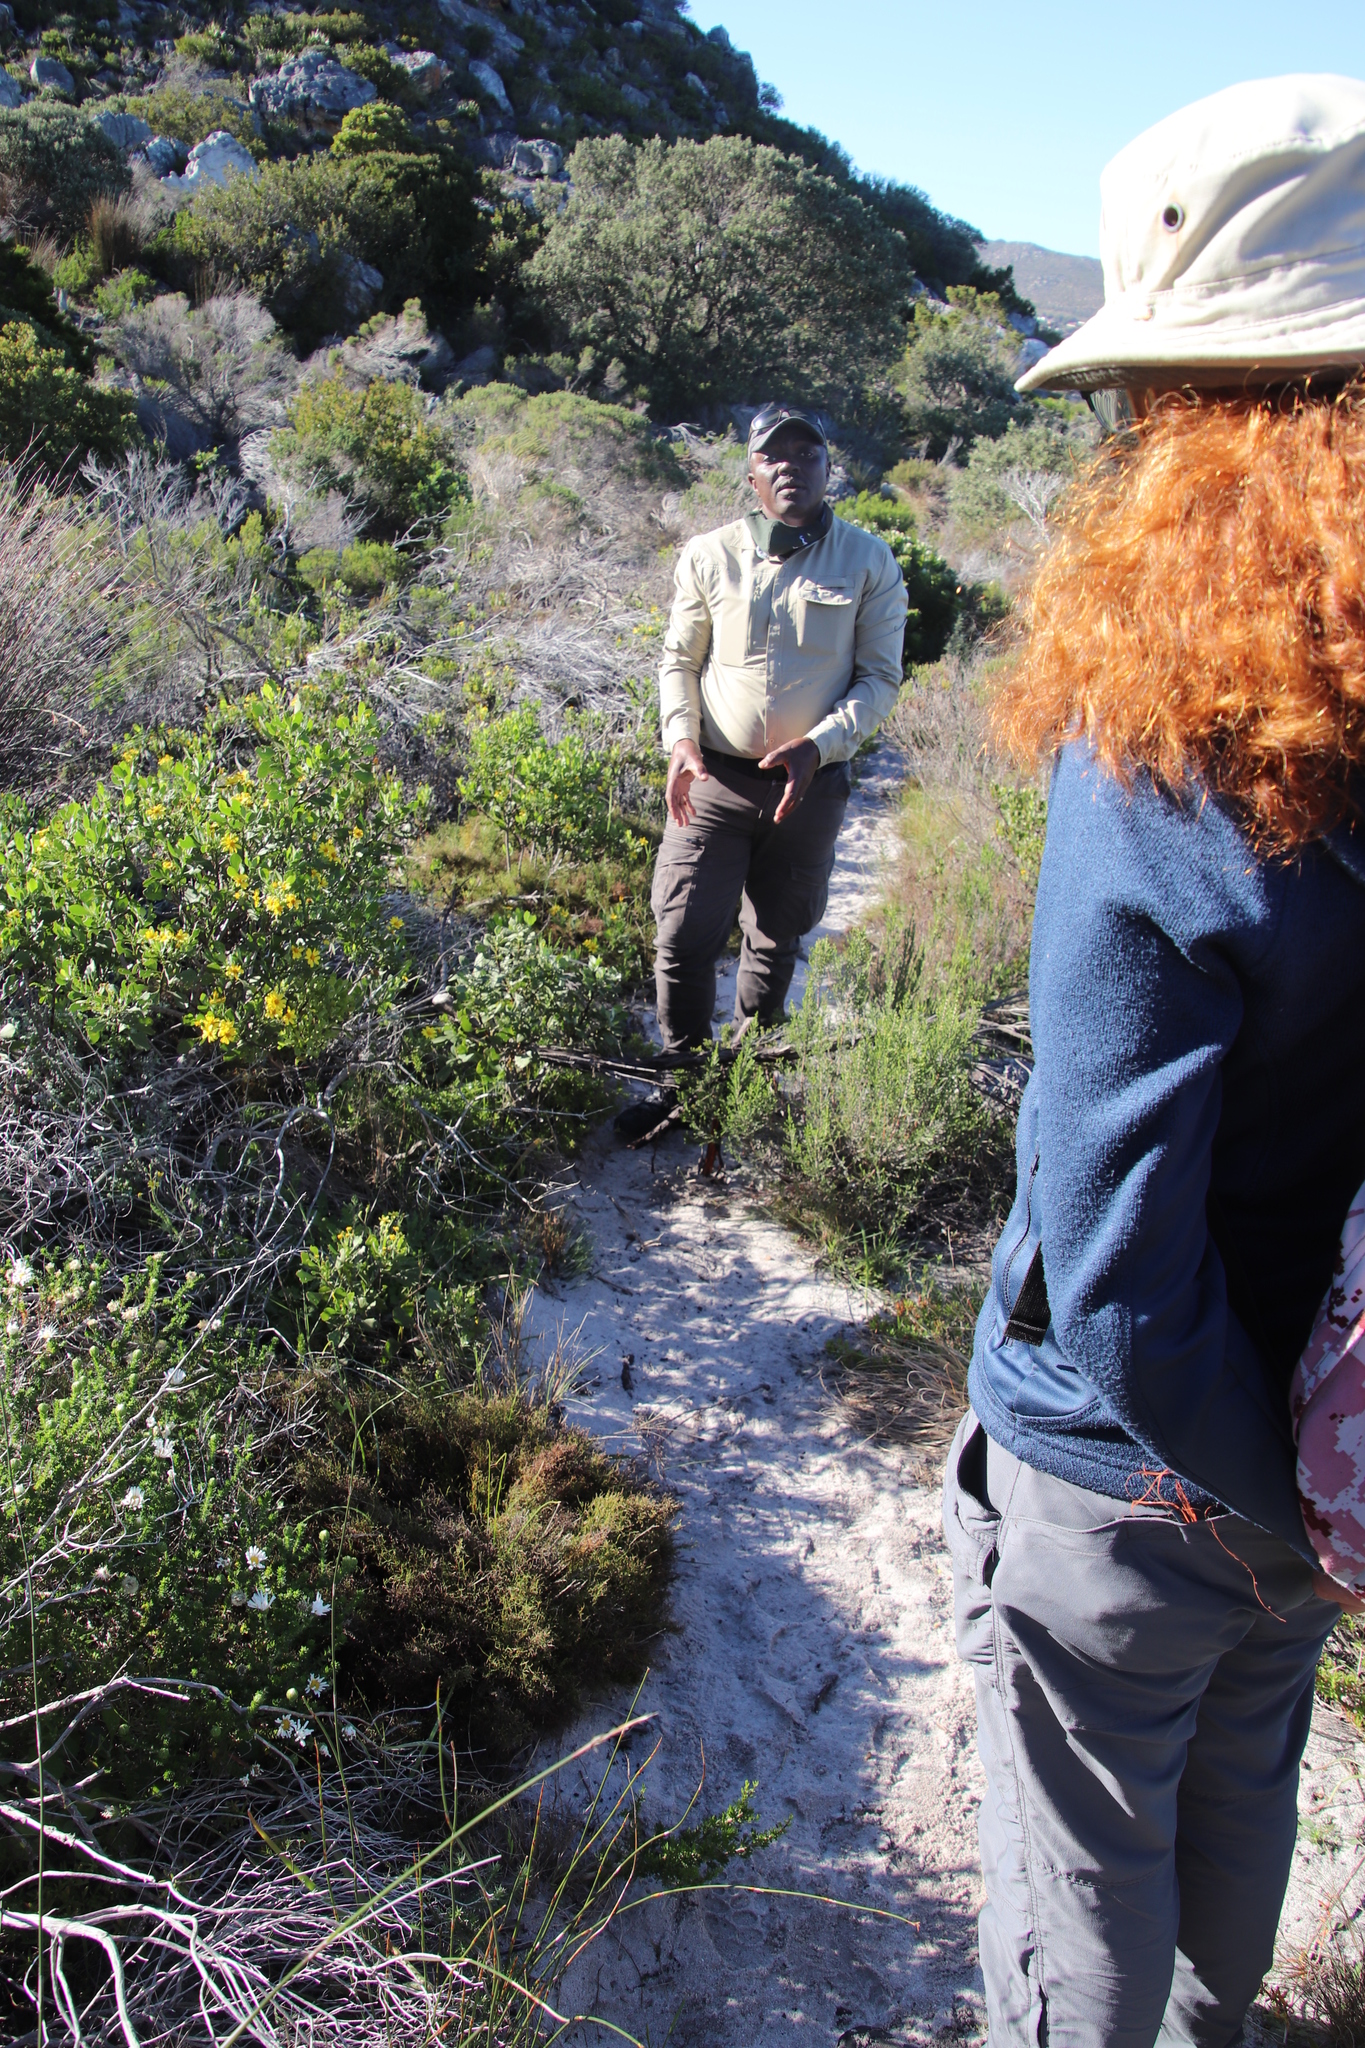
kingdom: Plantae
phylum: Tracheophyta
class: Magnoliopsida
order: Asterales
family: Asteraceae
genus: Osteospermum
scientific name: Osteospermum moniliferum
